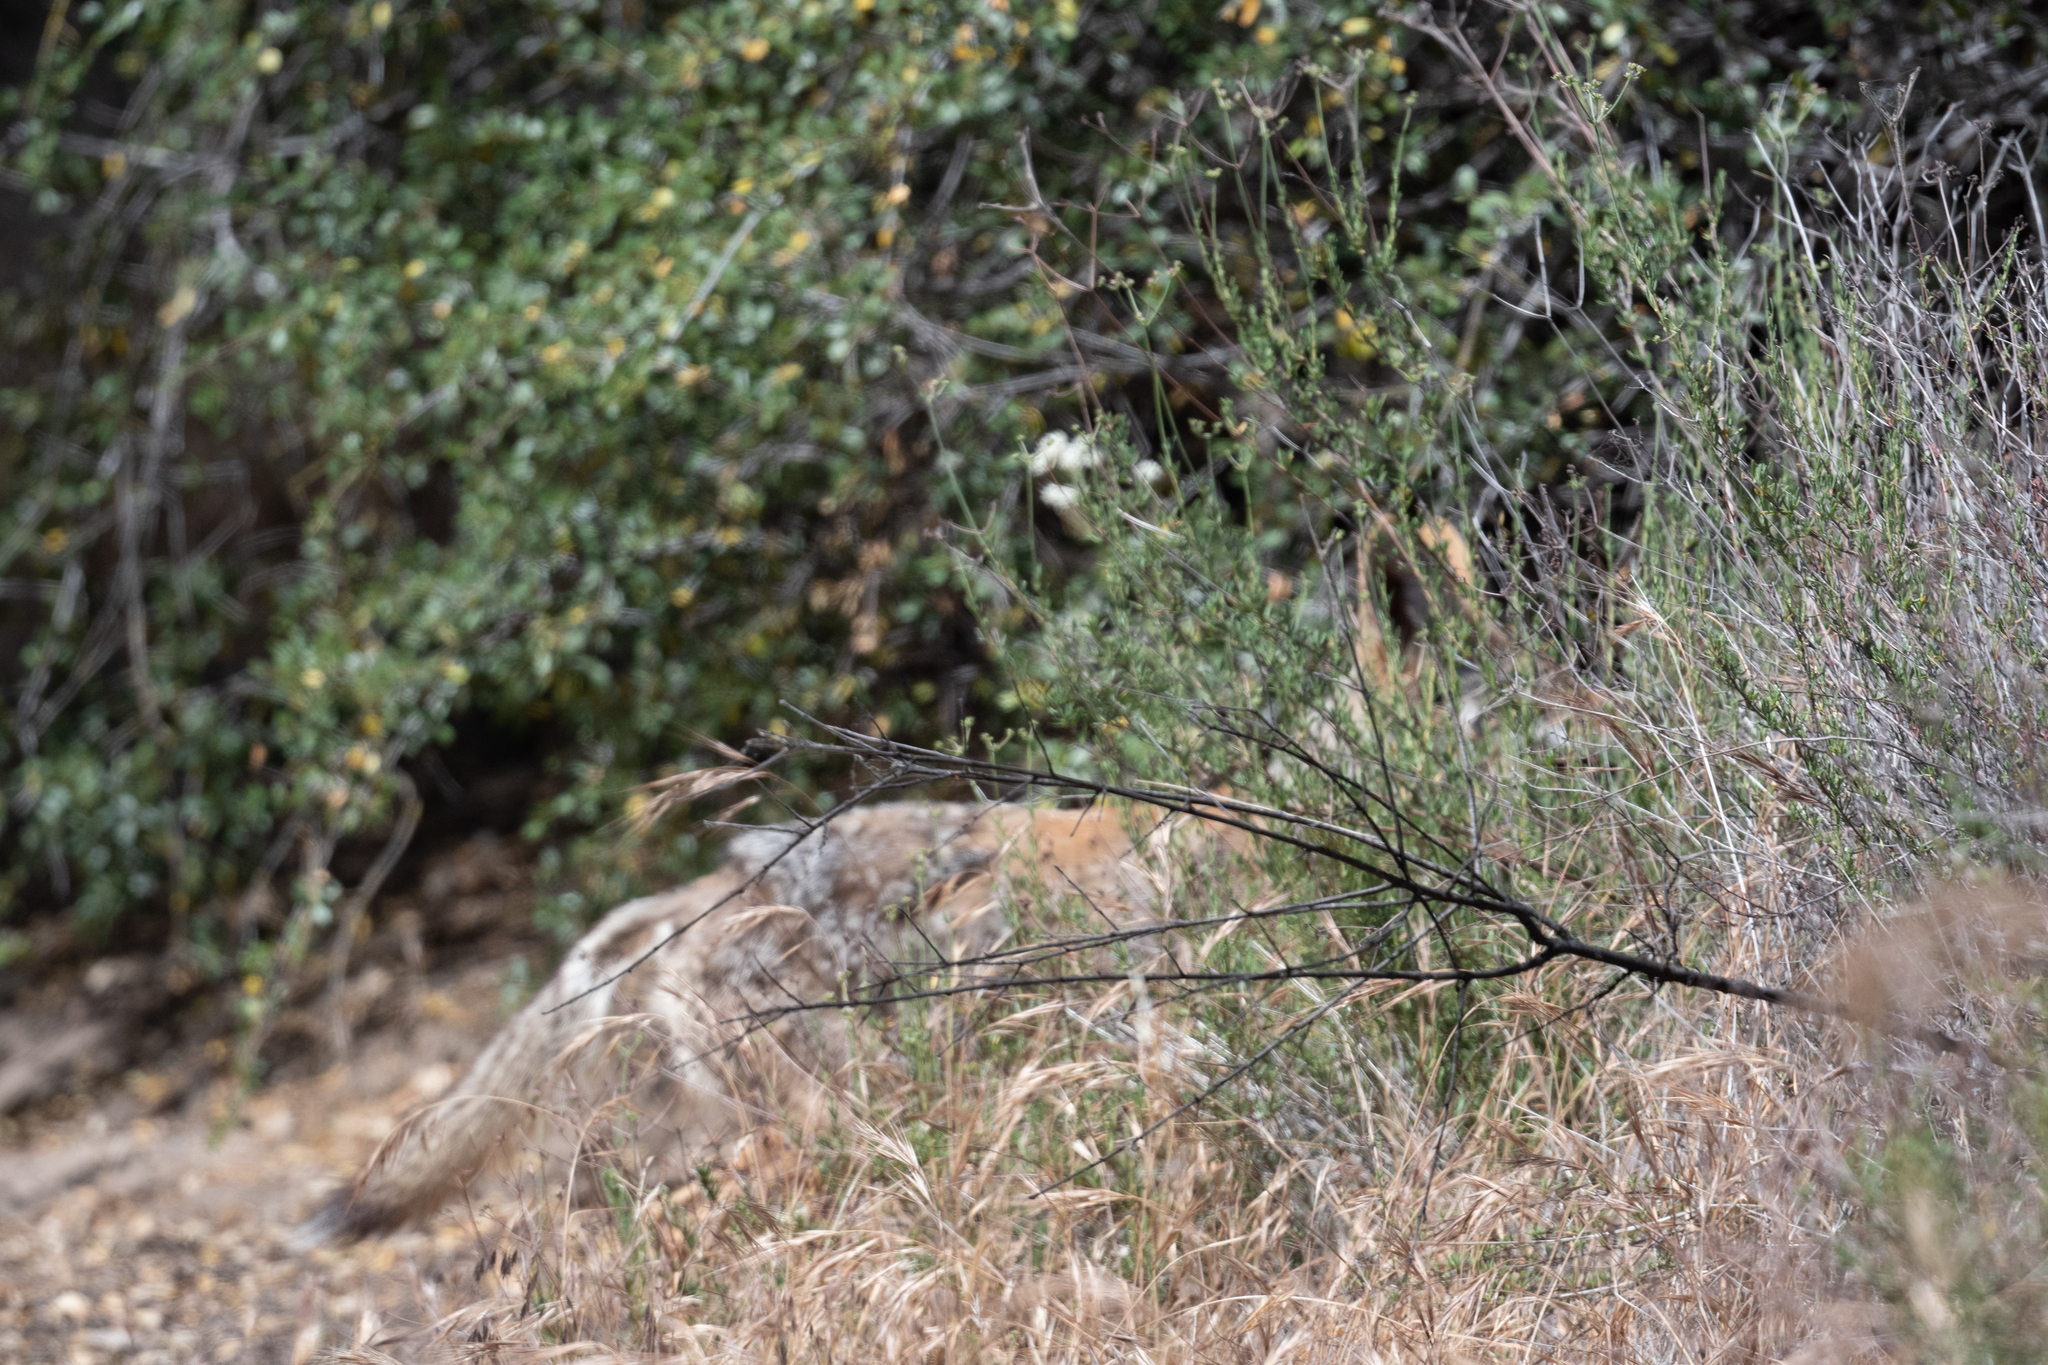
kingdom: Animalia
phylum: Chordata
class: Mammalia
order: Carnivora
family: Canidae
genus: Canis
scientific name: Canis latrans
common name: Coyote
